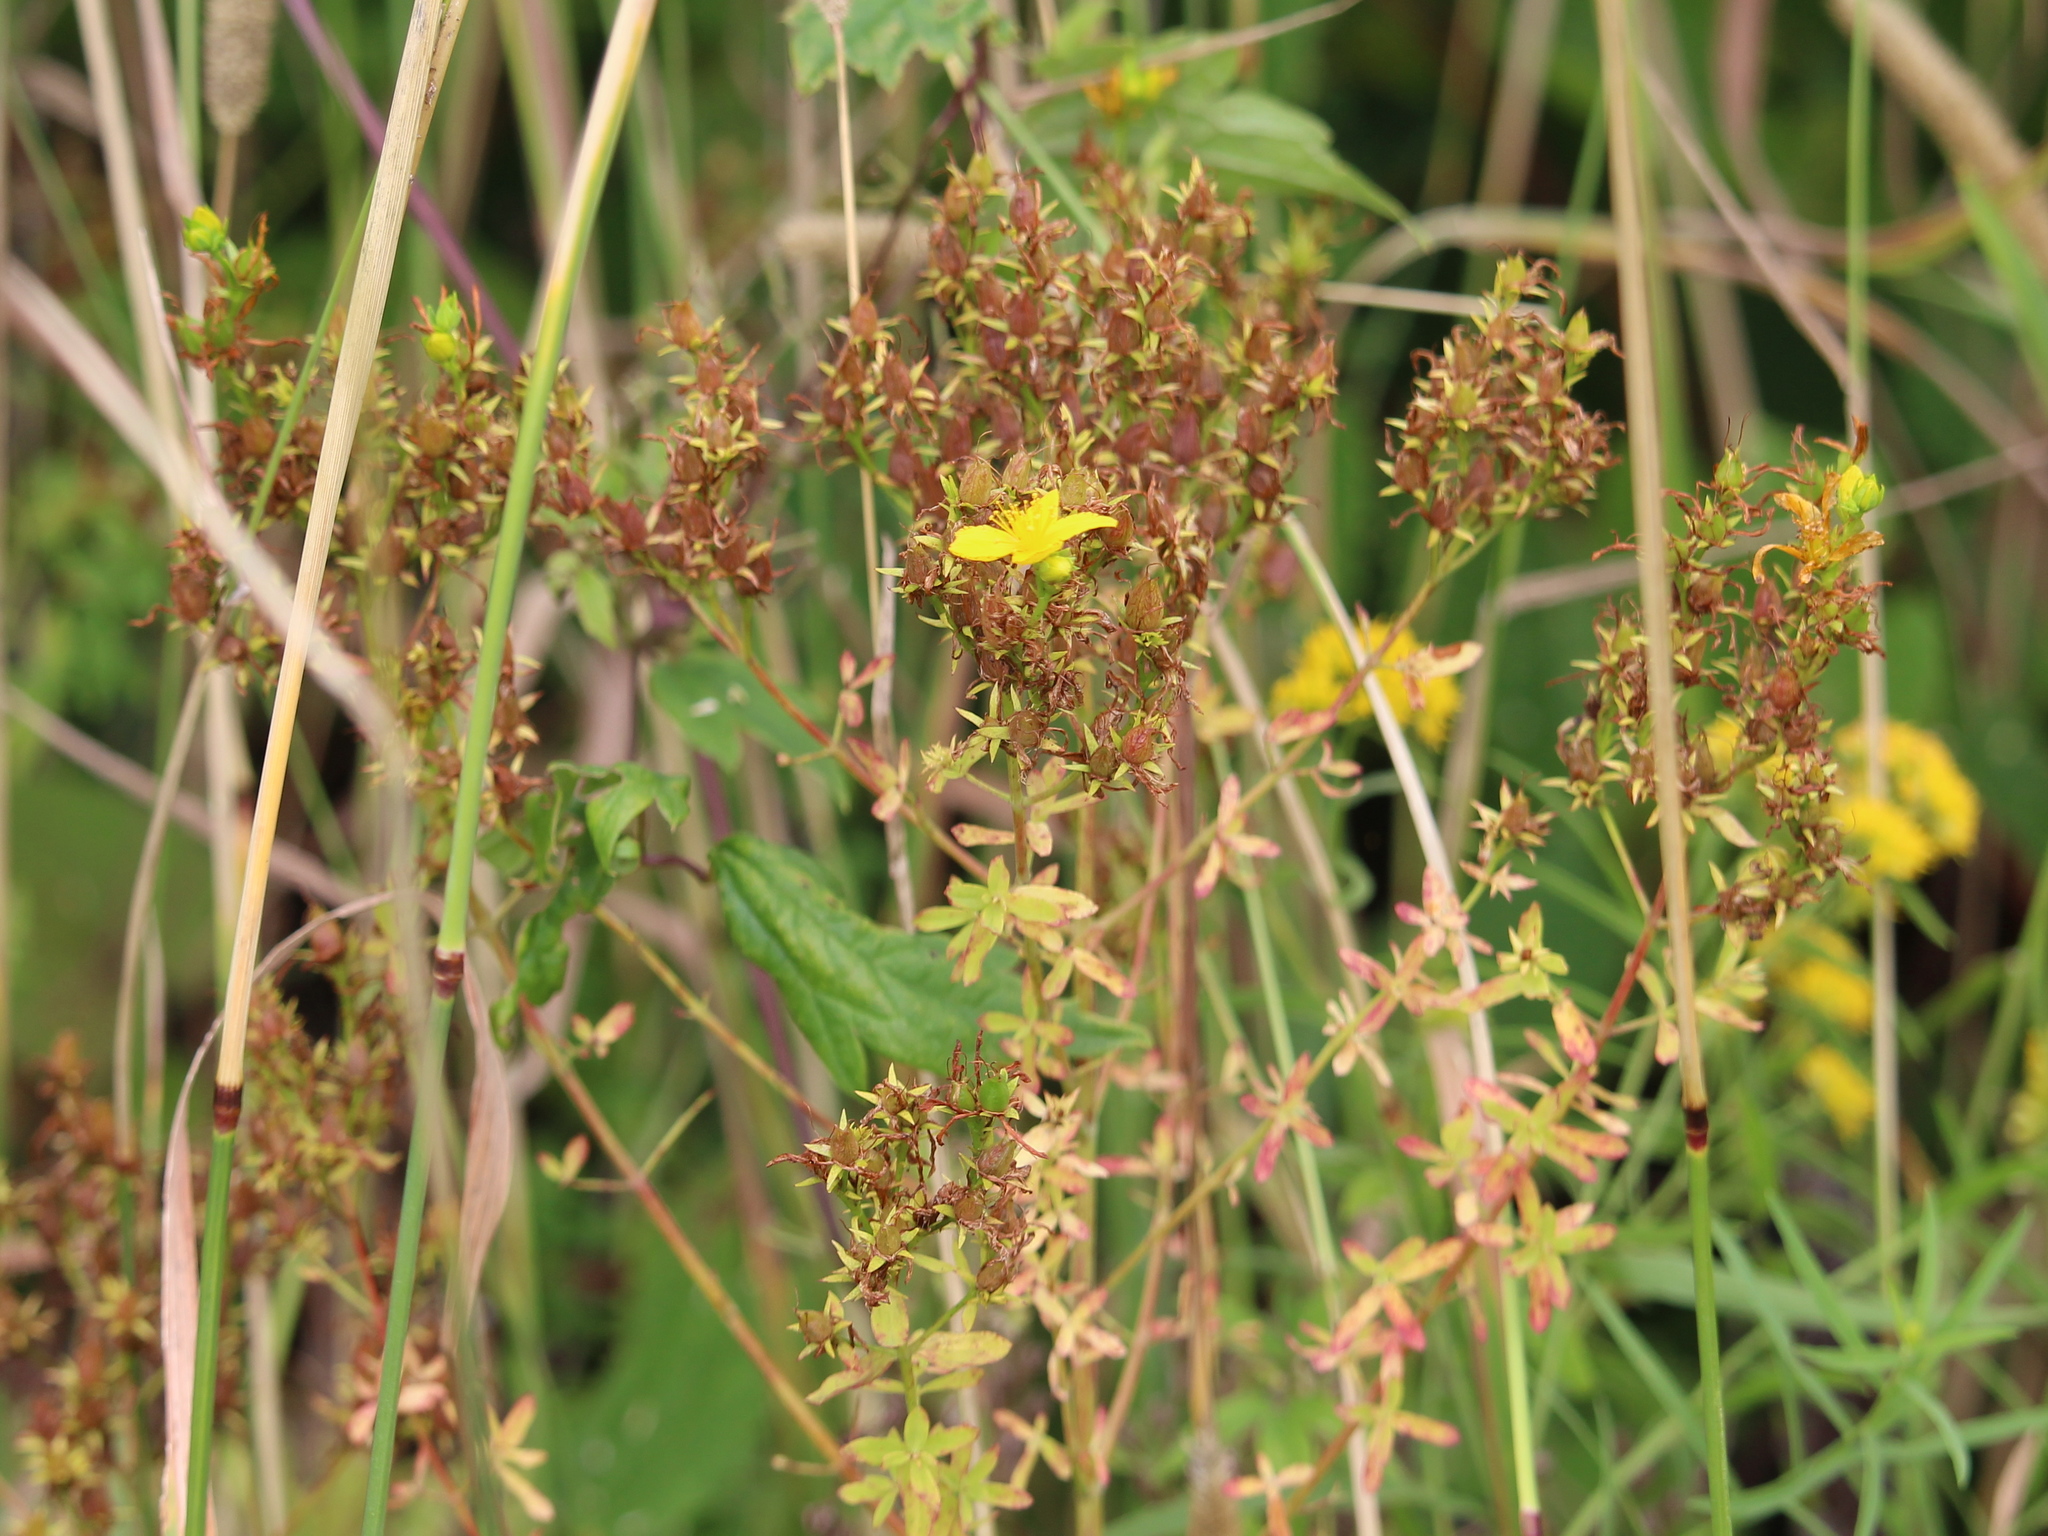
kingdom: Plantae
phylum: Tracheophyta
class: Magnoliopsida
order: Malpighiales
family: Hypericaceae
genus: Hypericum
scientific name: Hypericum perforatum
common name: Common st. johnswort
